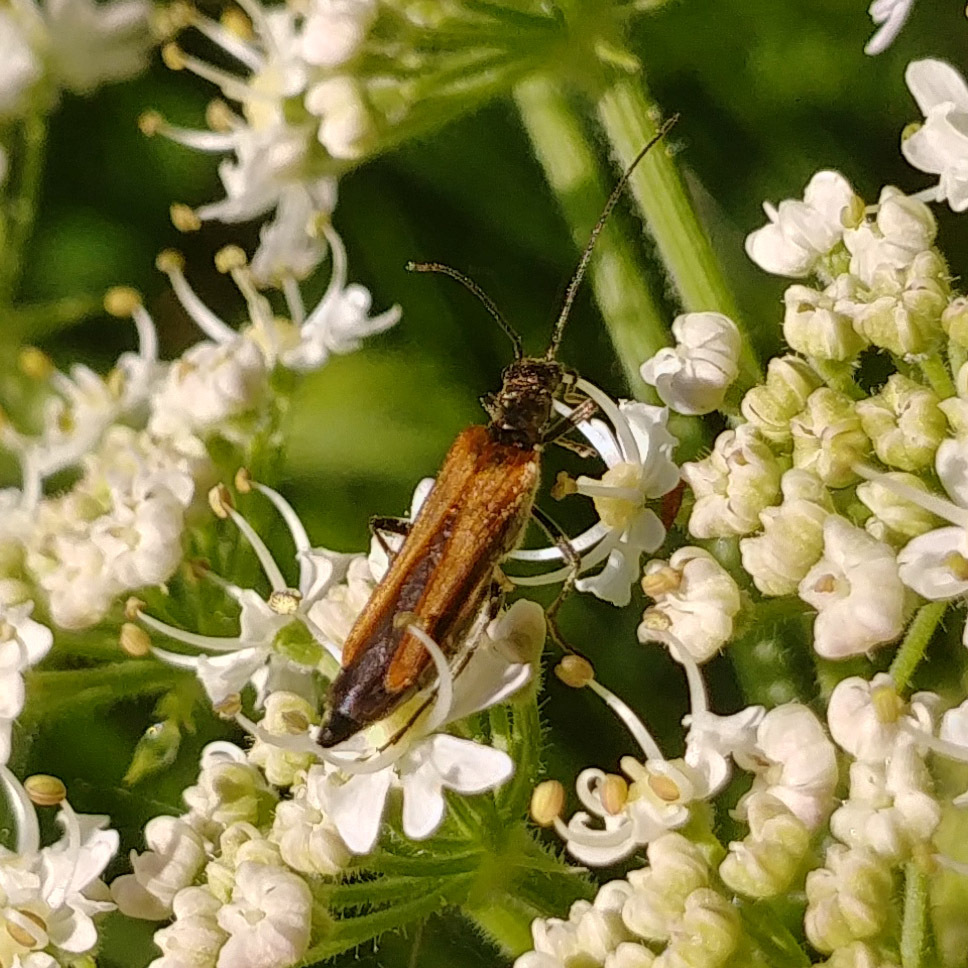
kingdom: Animalia
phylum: Arthropoda
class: Insecta
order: Coleoptera
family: Oedemeridae
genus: Oedemera
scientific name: Oedemera femorata
